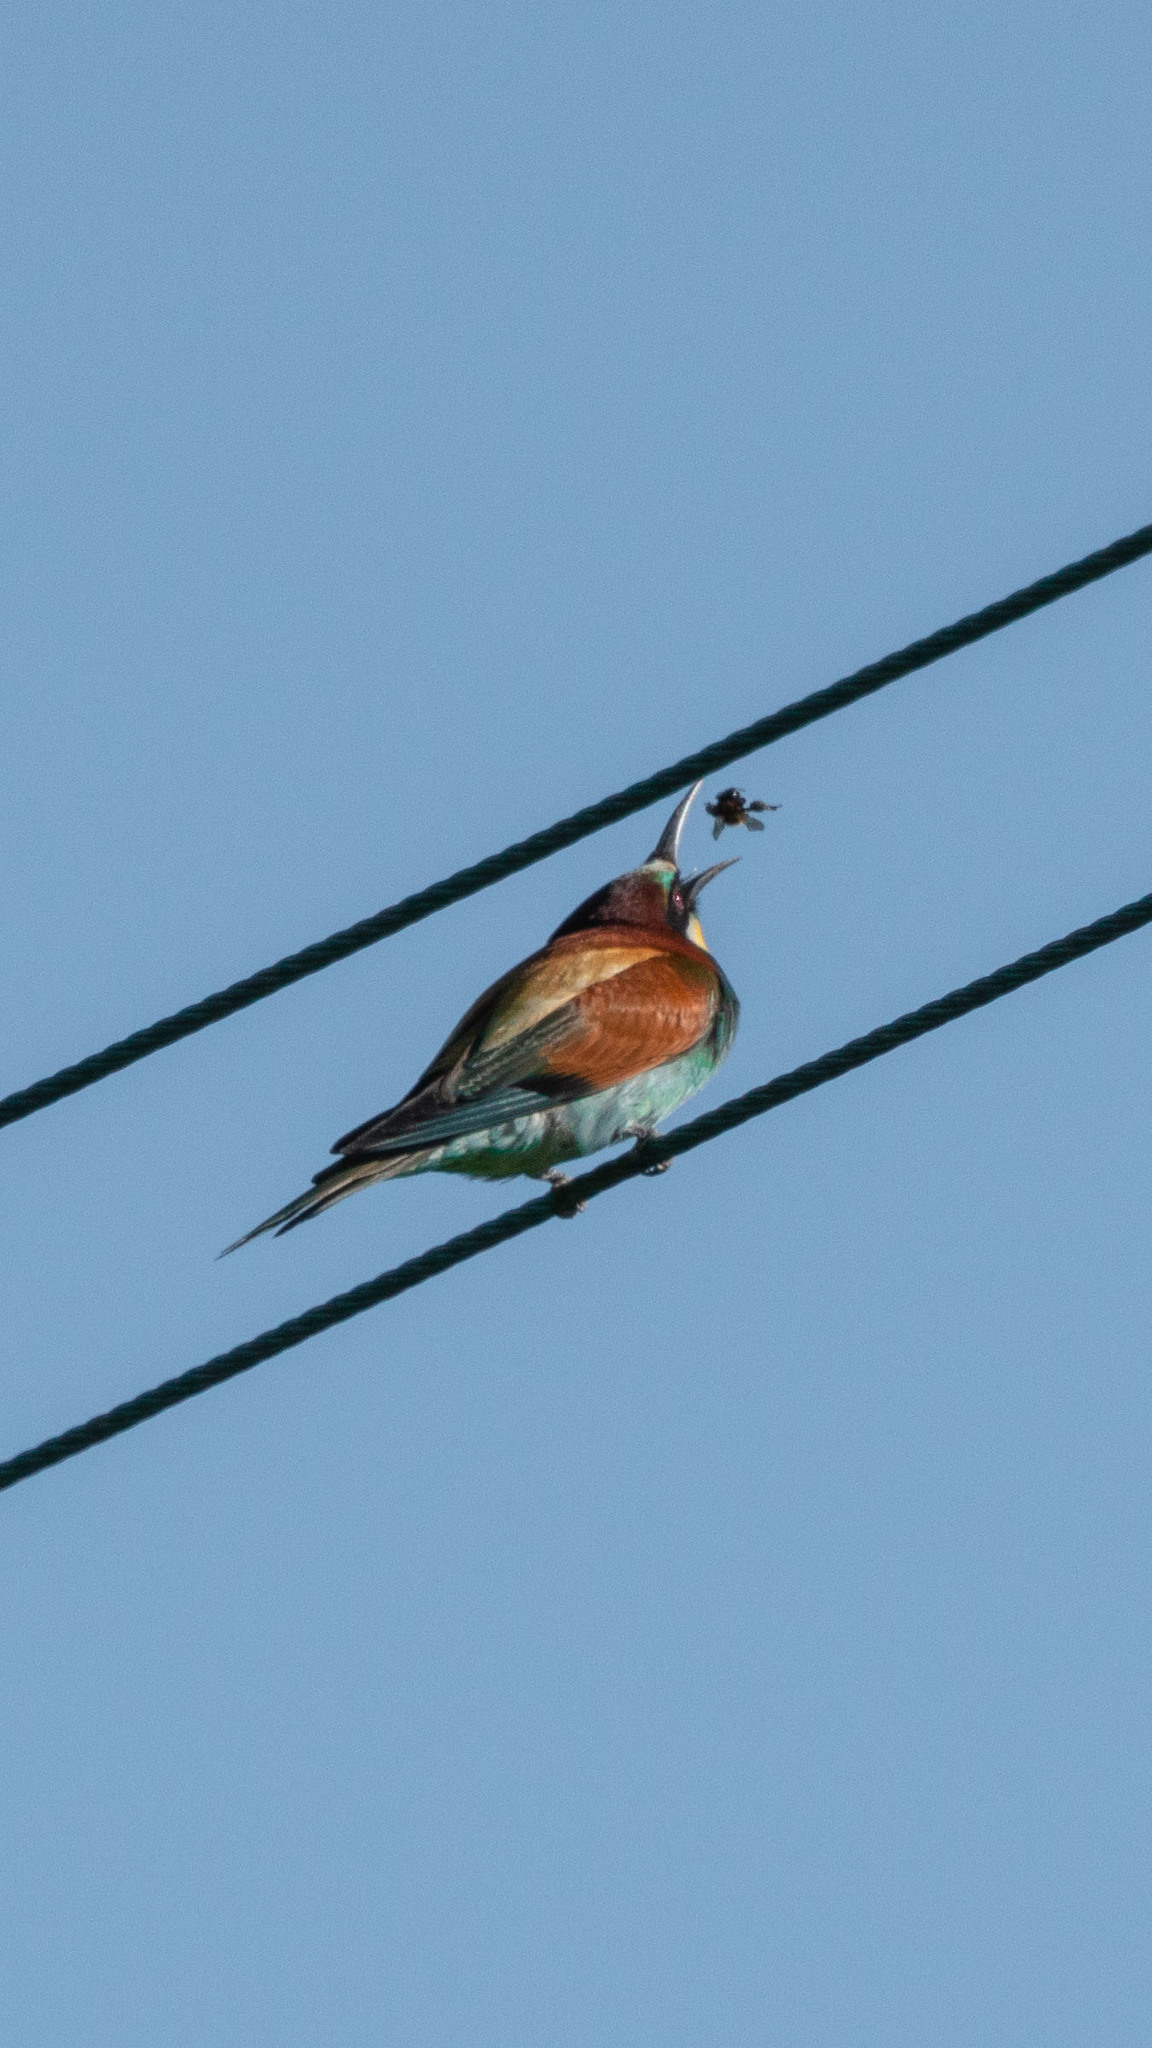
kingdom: Animalia
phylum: Chordata
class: Aves
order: Coraciiformes
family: Meropidae
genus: Merops
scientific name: Merops apiaster
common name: European bee-eater
